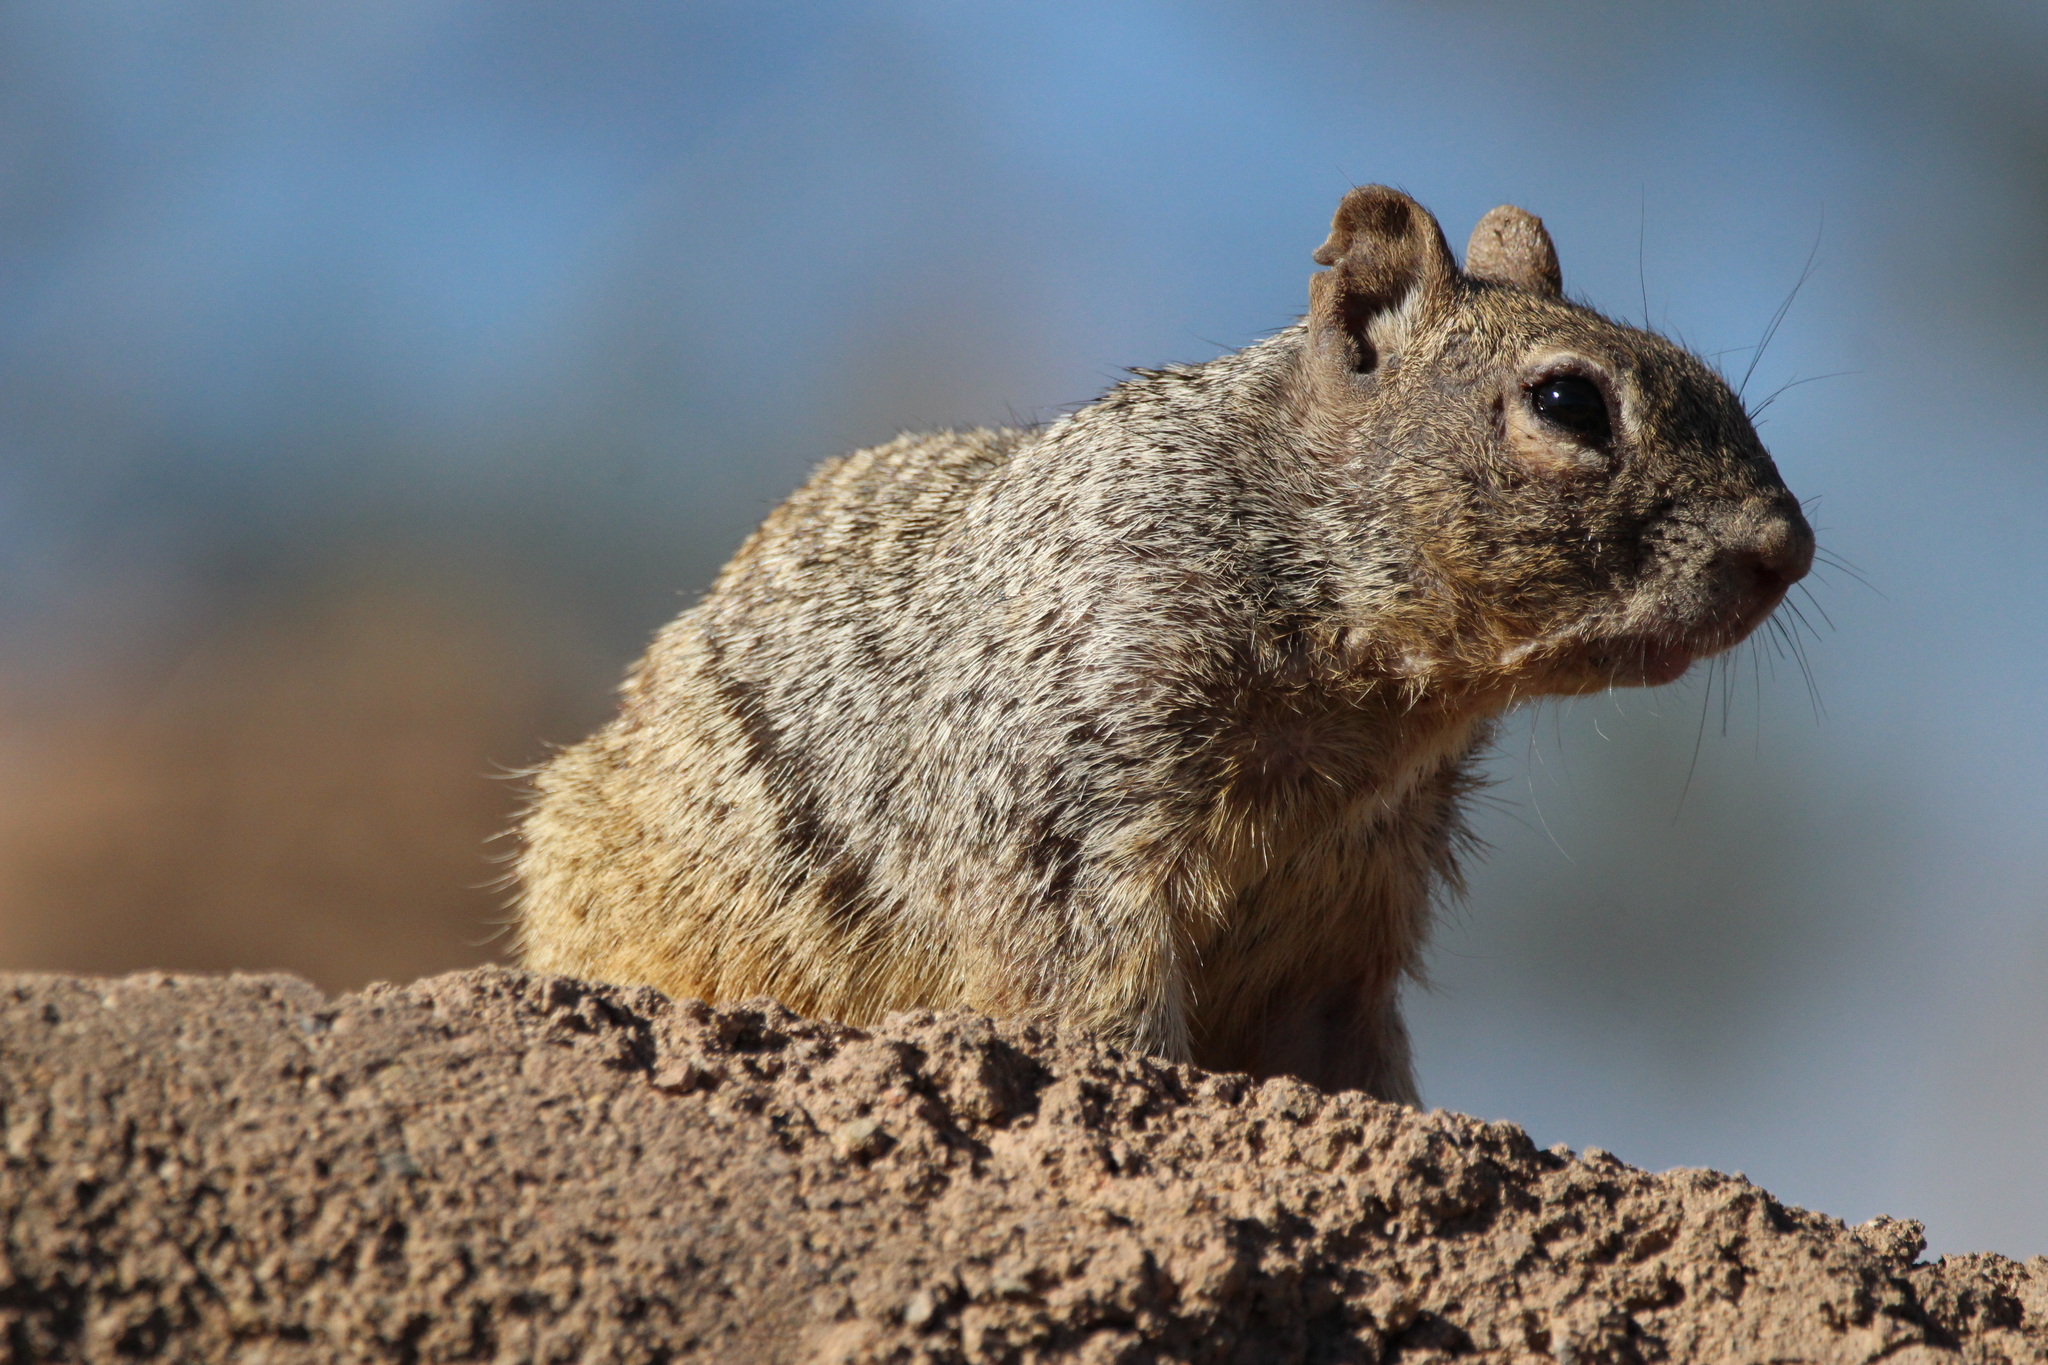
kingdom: Animalia
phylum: Chordata
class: Mammalia
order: Rodentia
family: Sciuridae
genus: Otospermophilus
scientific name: Otospermophilus variegatus
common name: Rock squirrel
